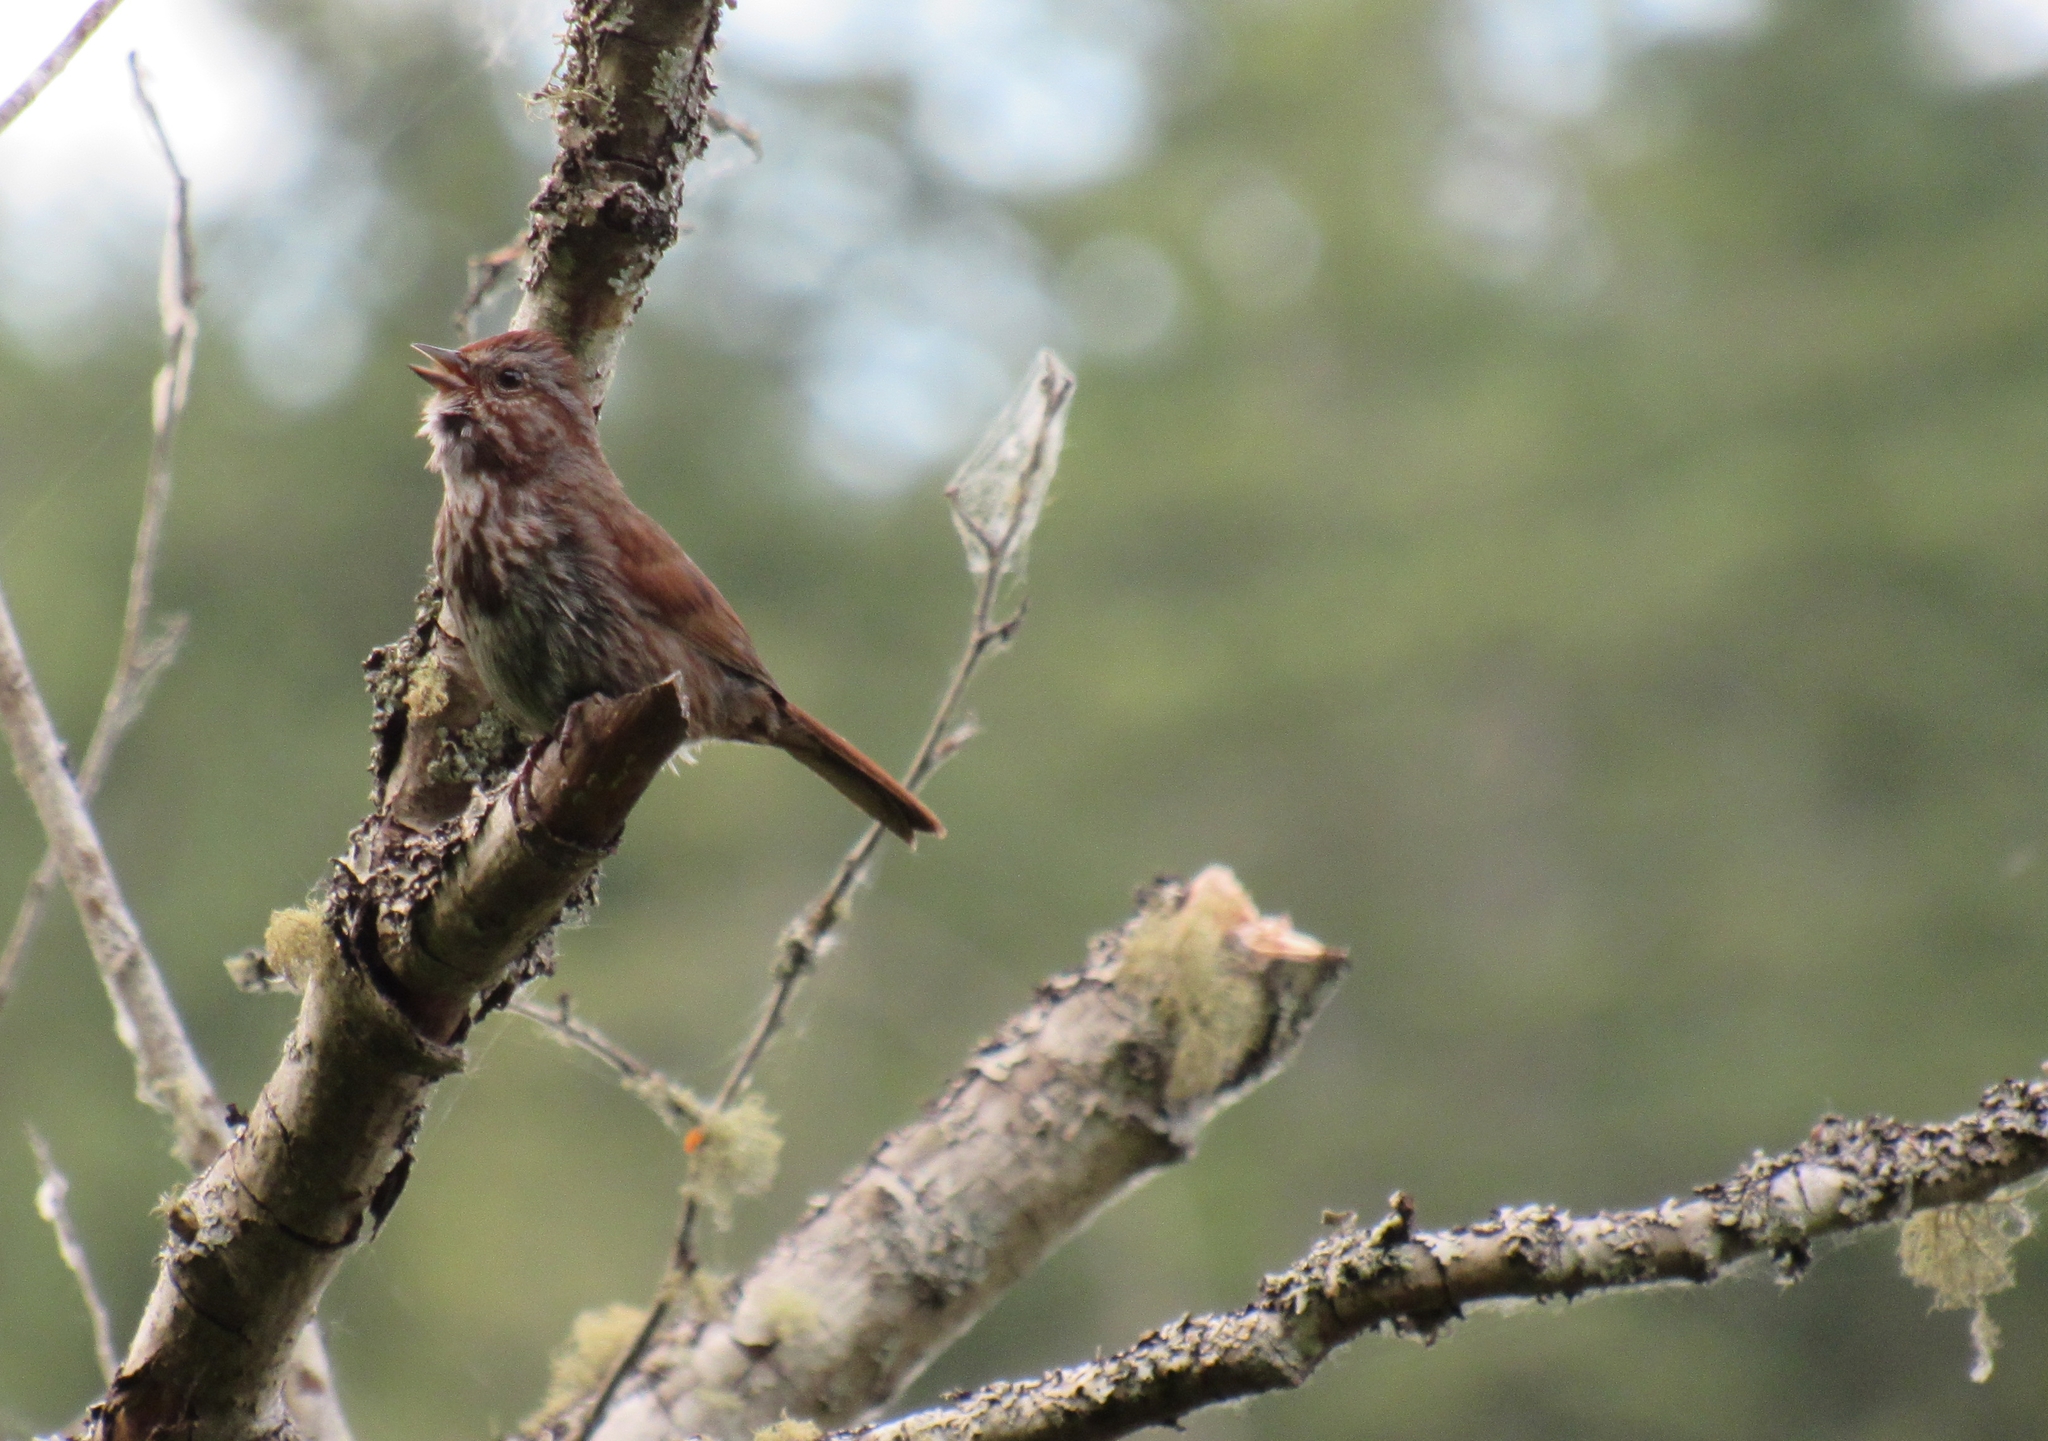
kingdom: Animalia
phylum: Chordata
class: Aves
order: Passeriformes
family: Passerellidae
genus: Melospiza
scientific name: Melospiza melodia
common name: Song sparrow
